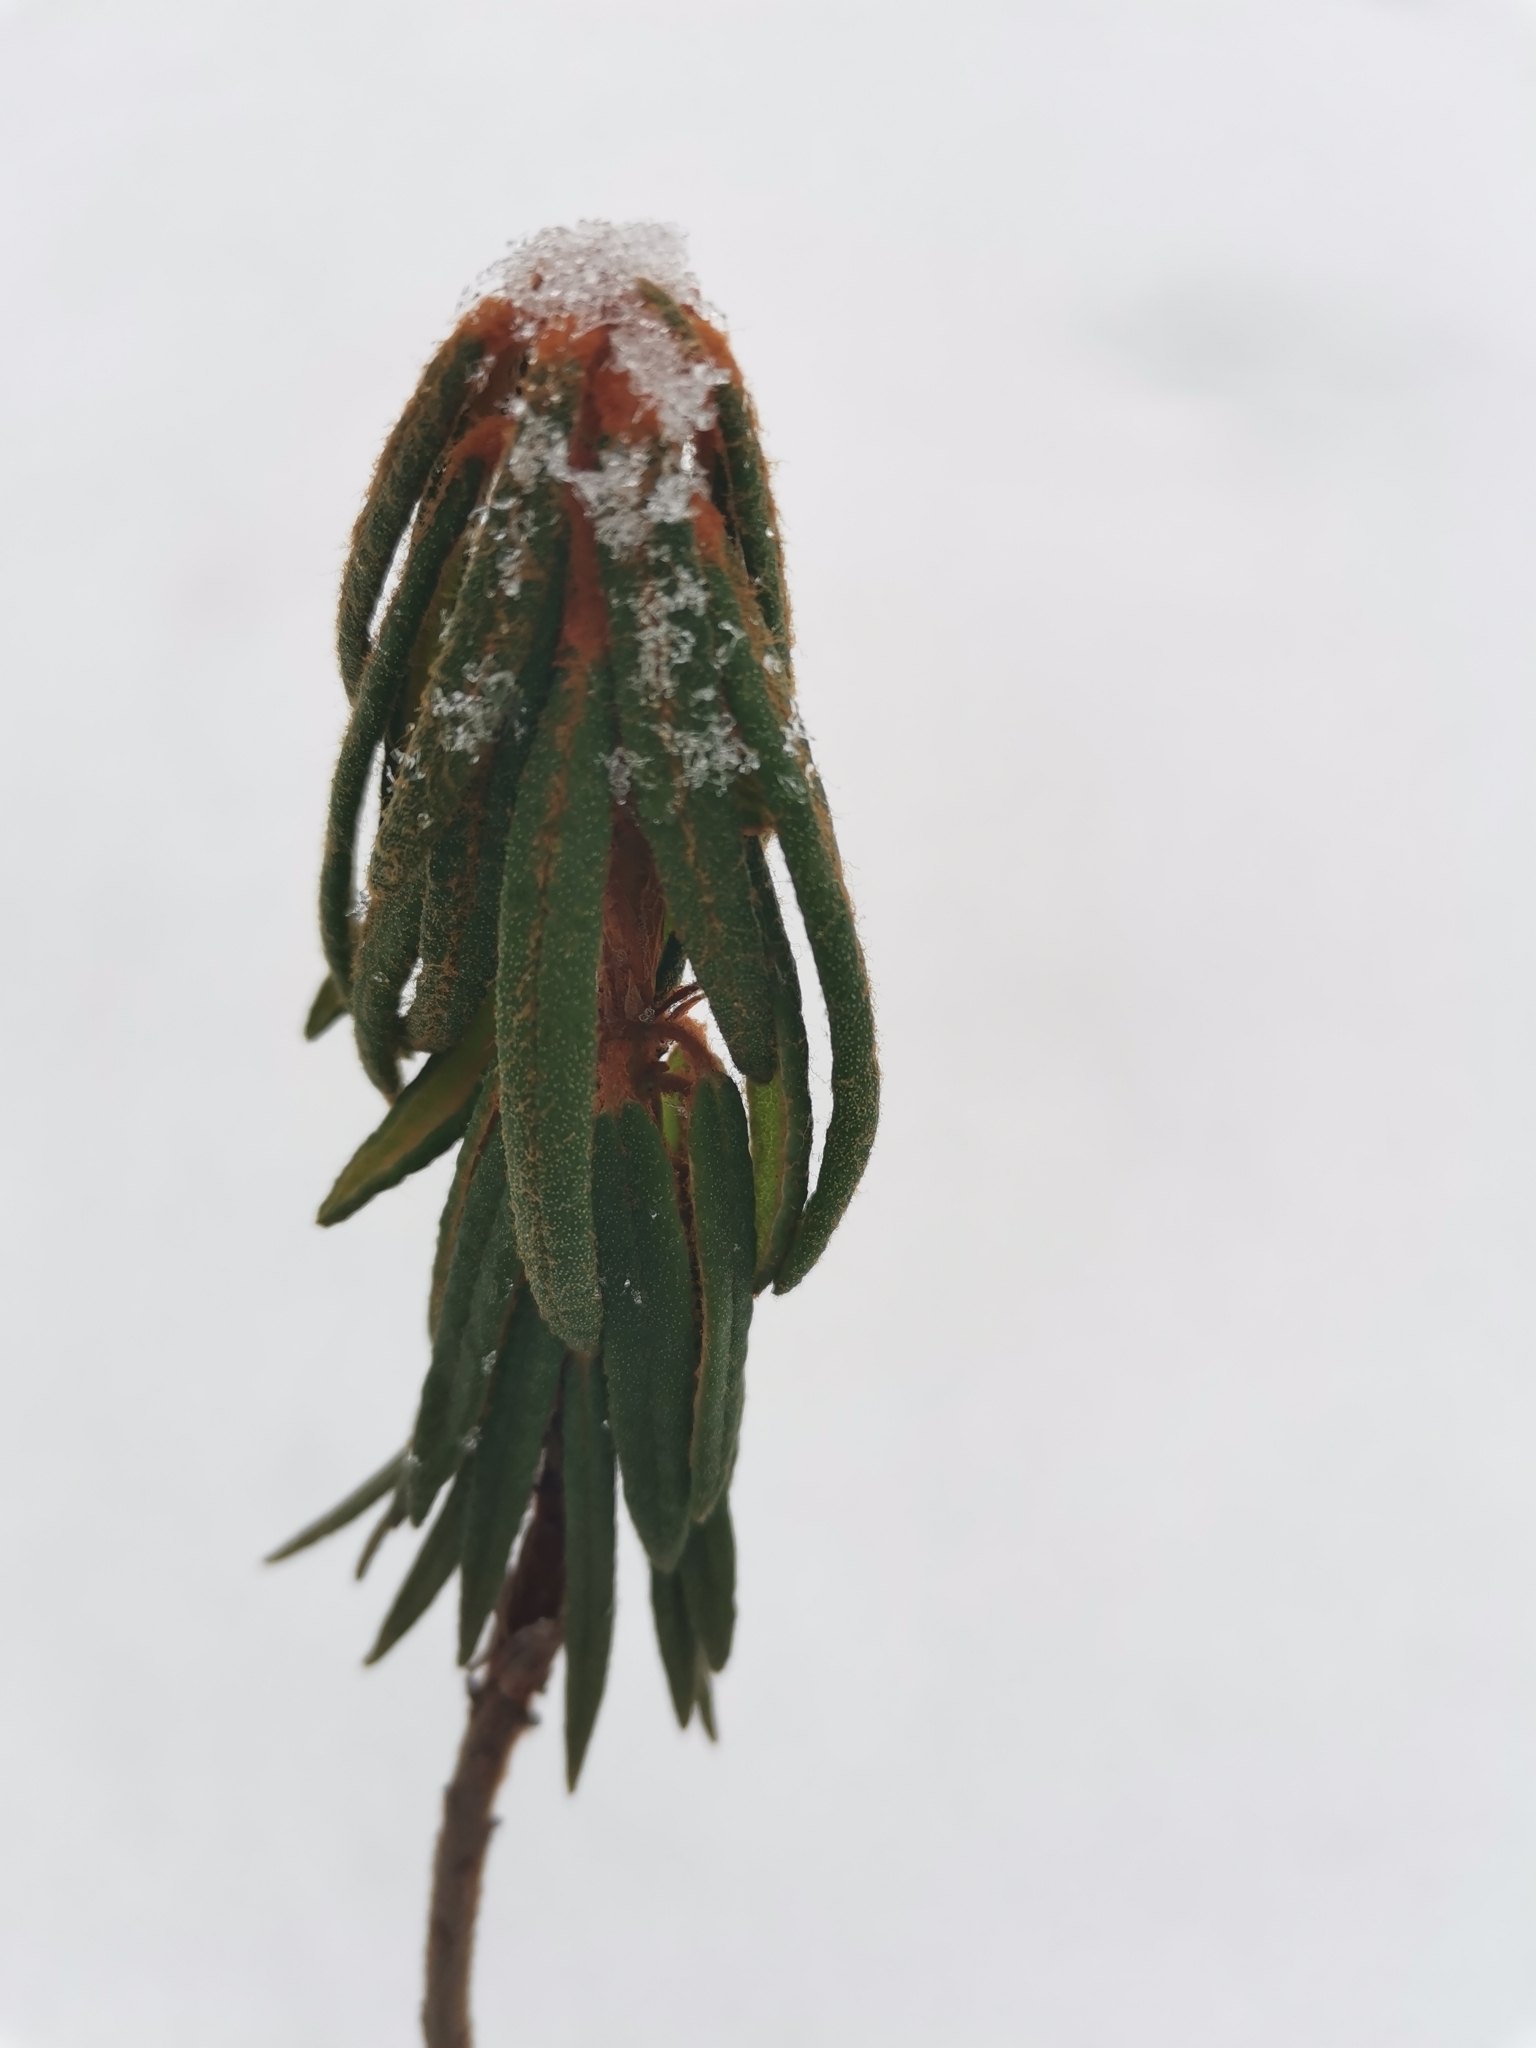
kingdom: Plantae
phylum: Tracheophyta
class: Magnoliopsida
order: Ericales
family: Ericaceae
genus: Rhododendron
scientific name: Rhododendron tomentosum
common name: Marsh labrador tea
